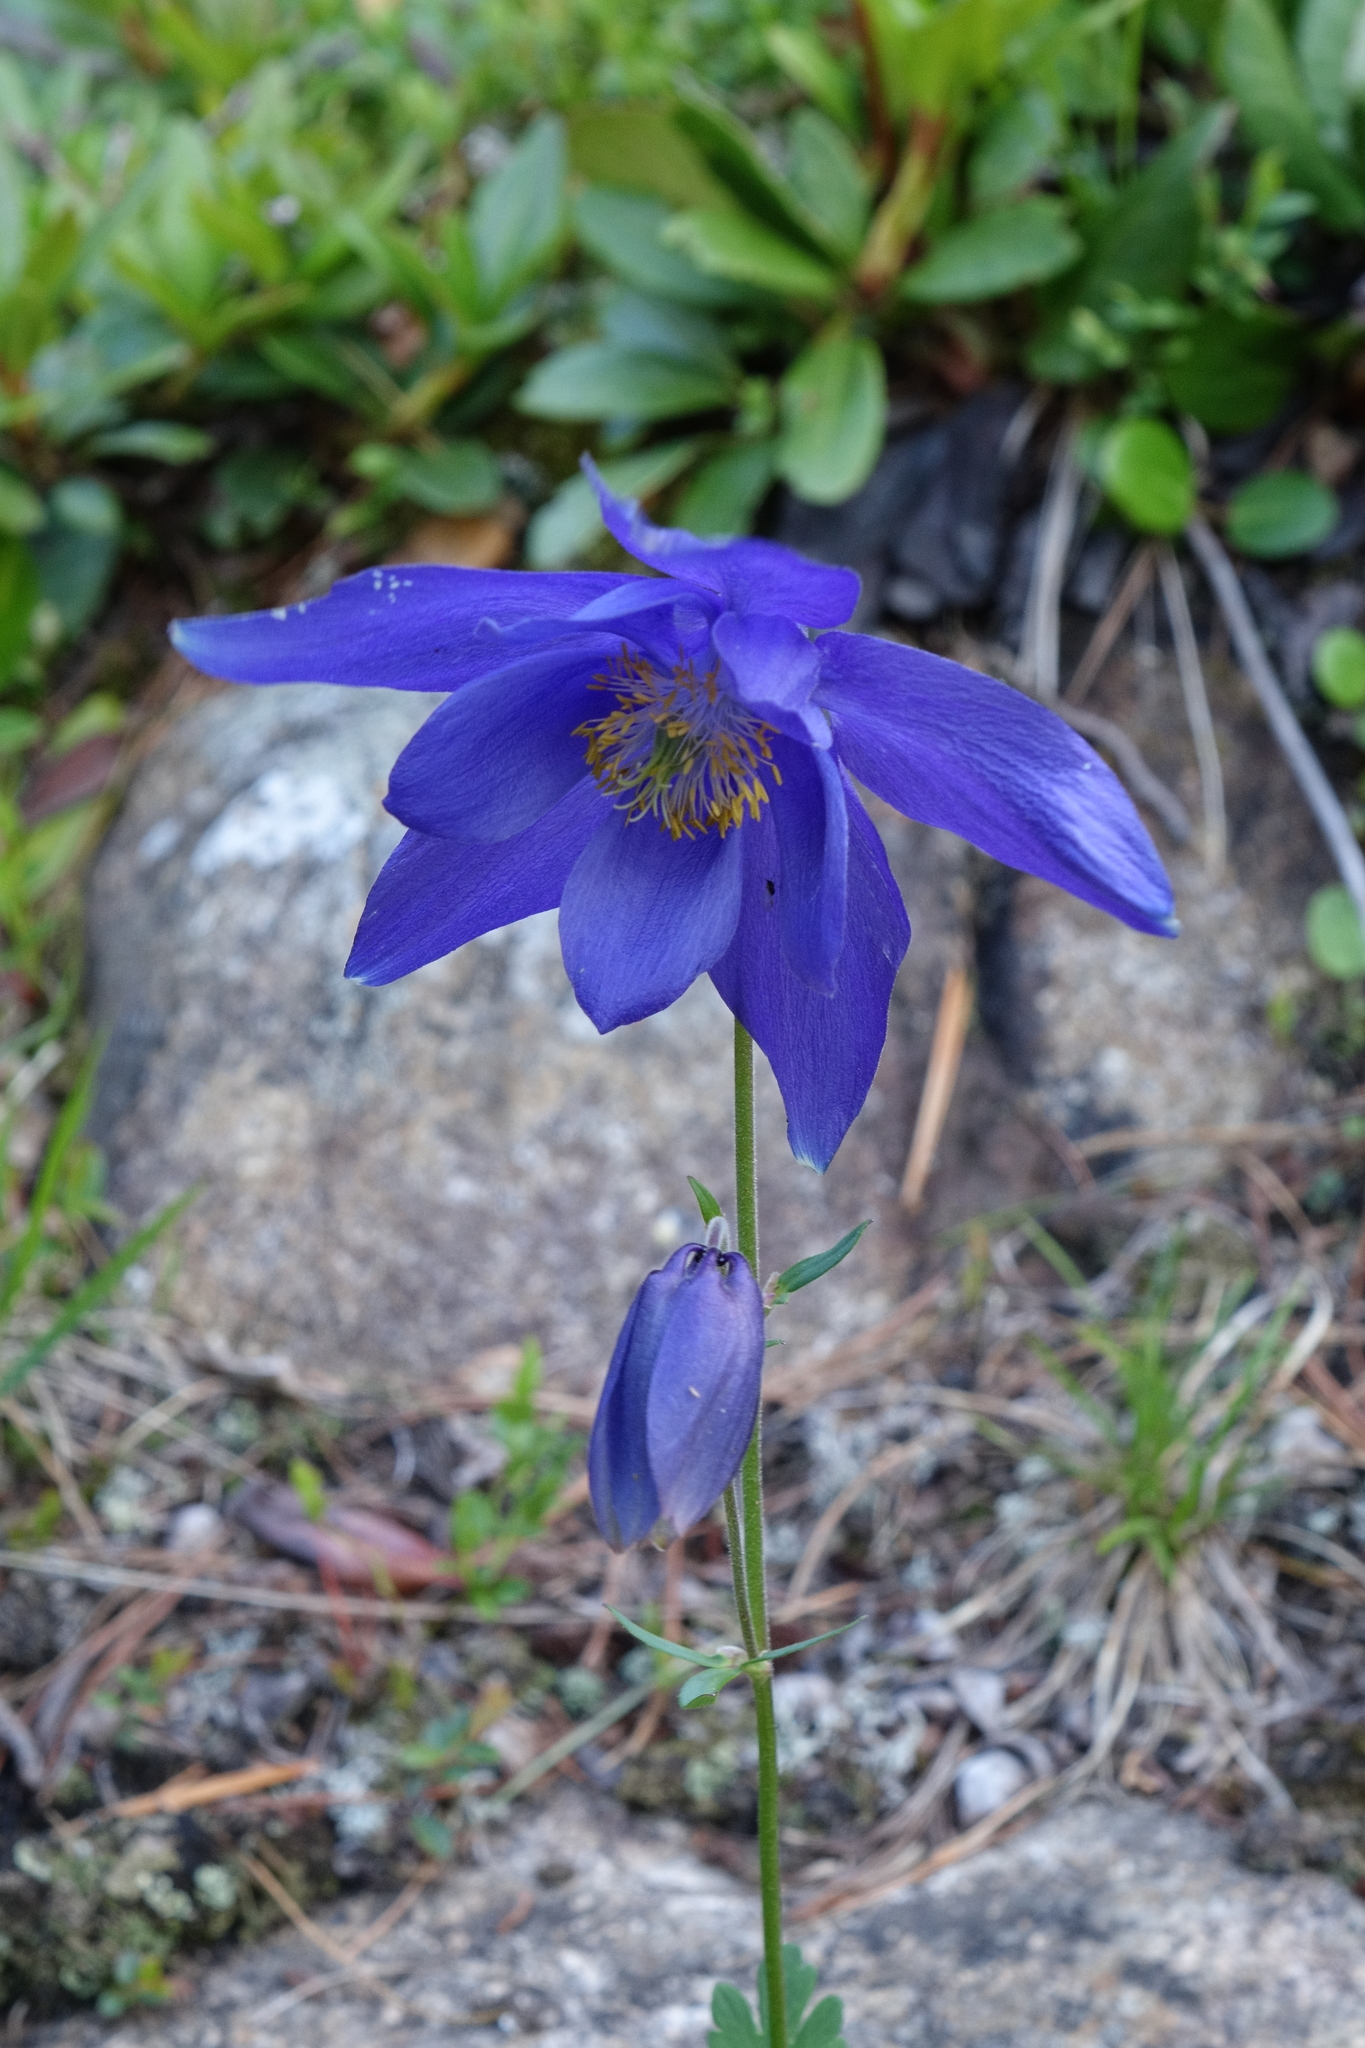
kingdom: Plantae
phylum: Tracheophyta
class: Magnoliopsida
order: Ranunculales
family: Ranunculaceae
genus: Aquilegia
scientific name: Aquilegia glandulosa
